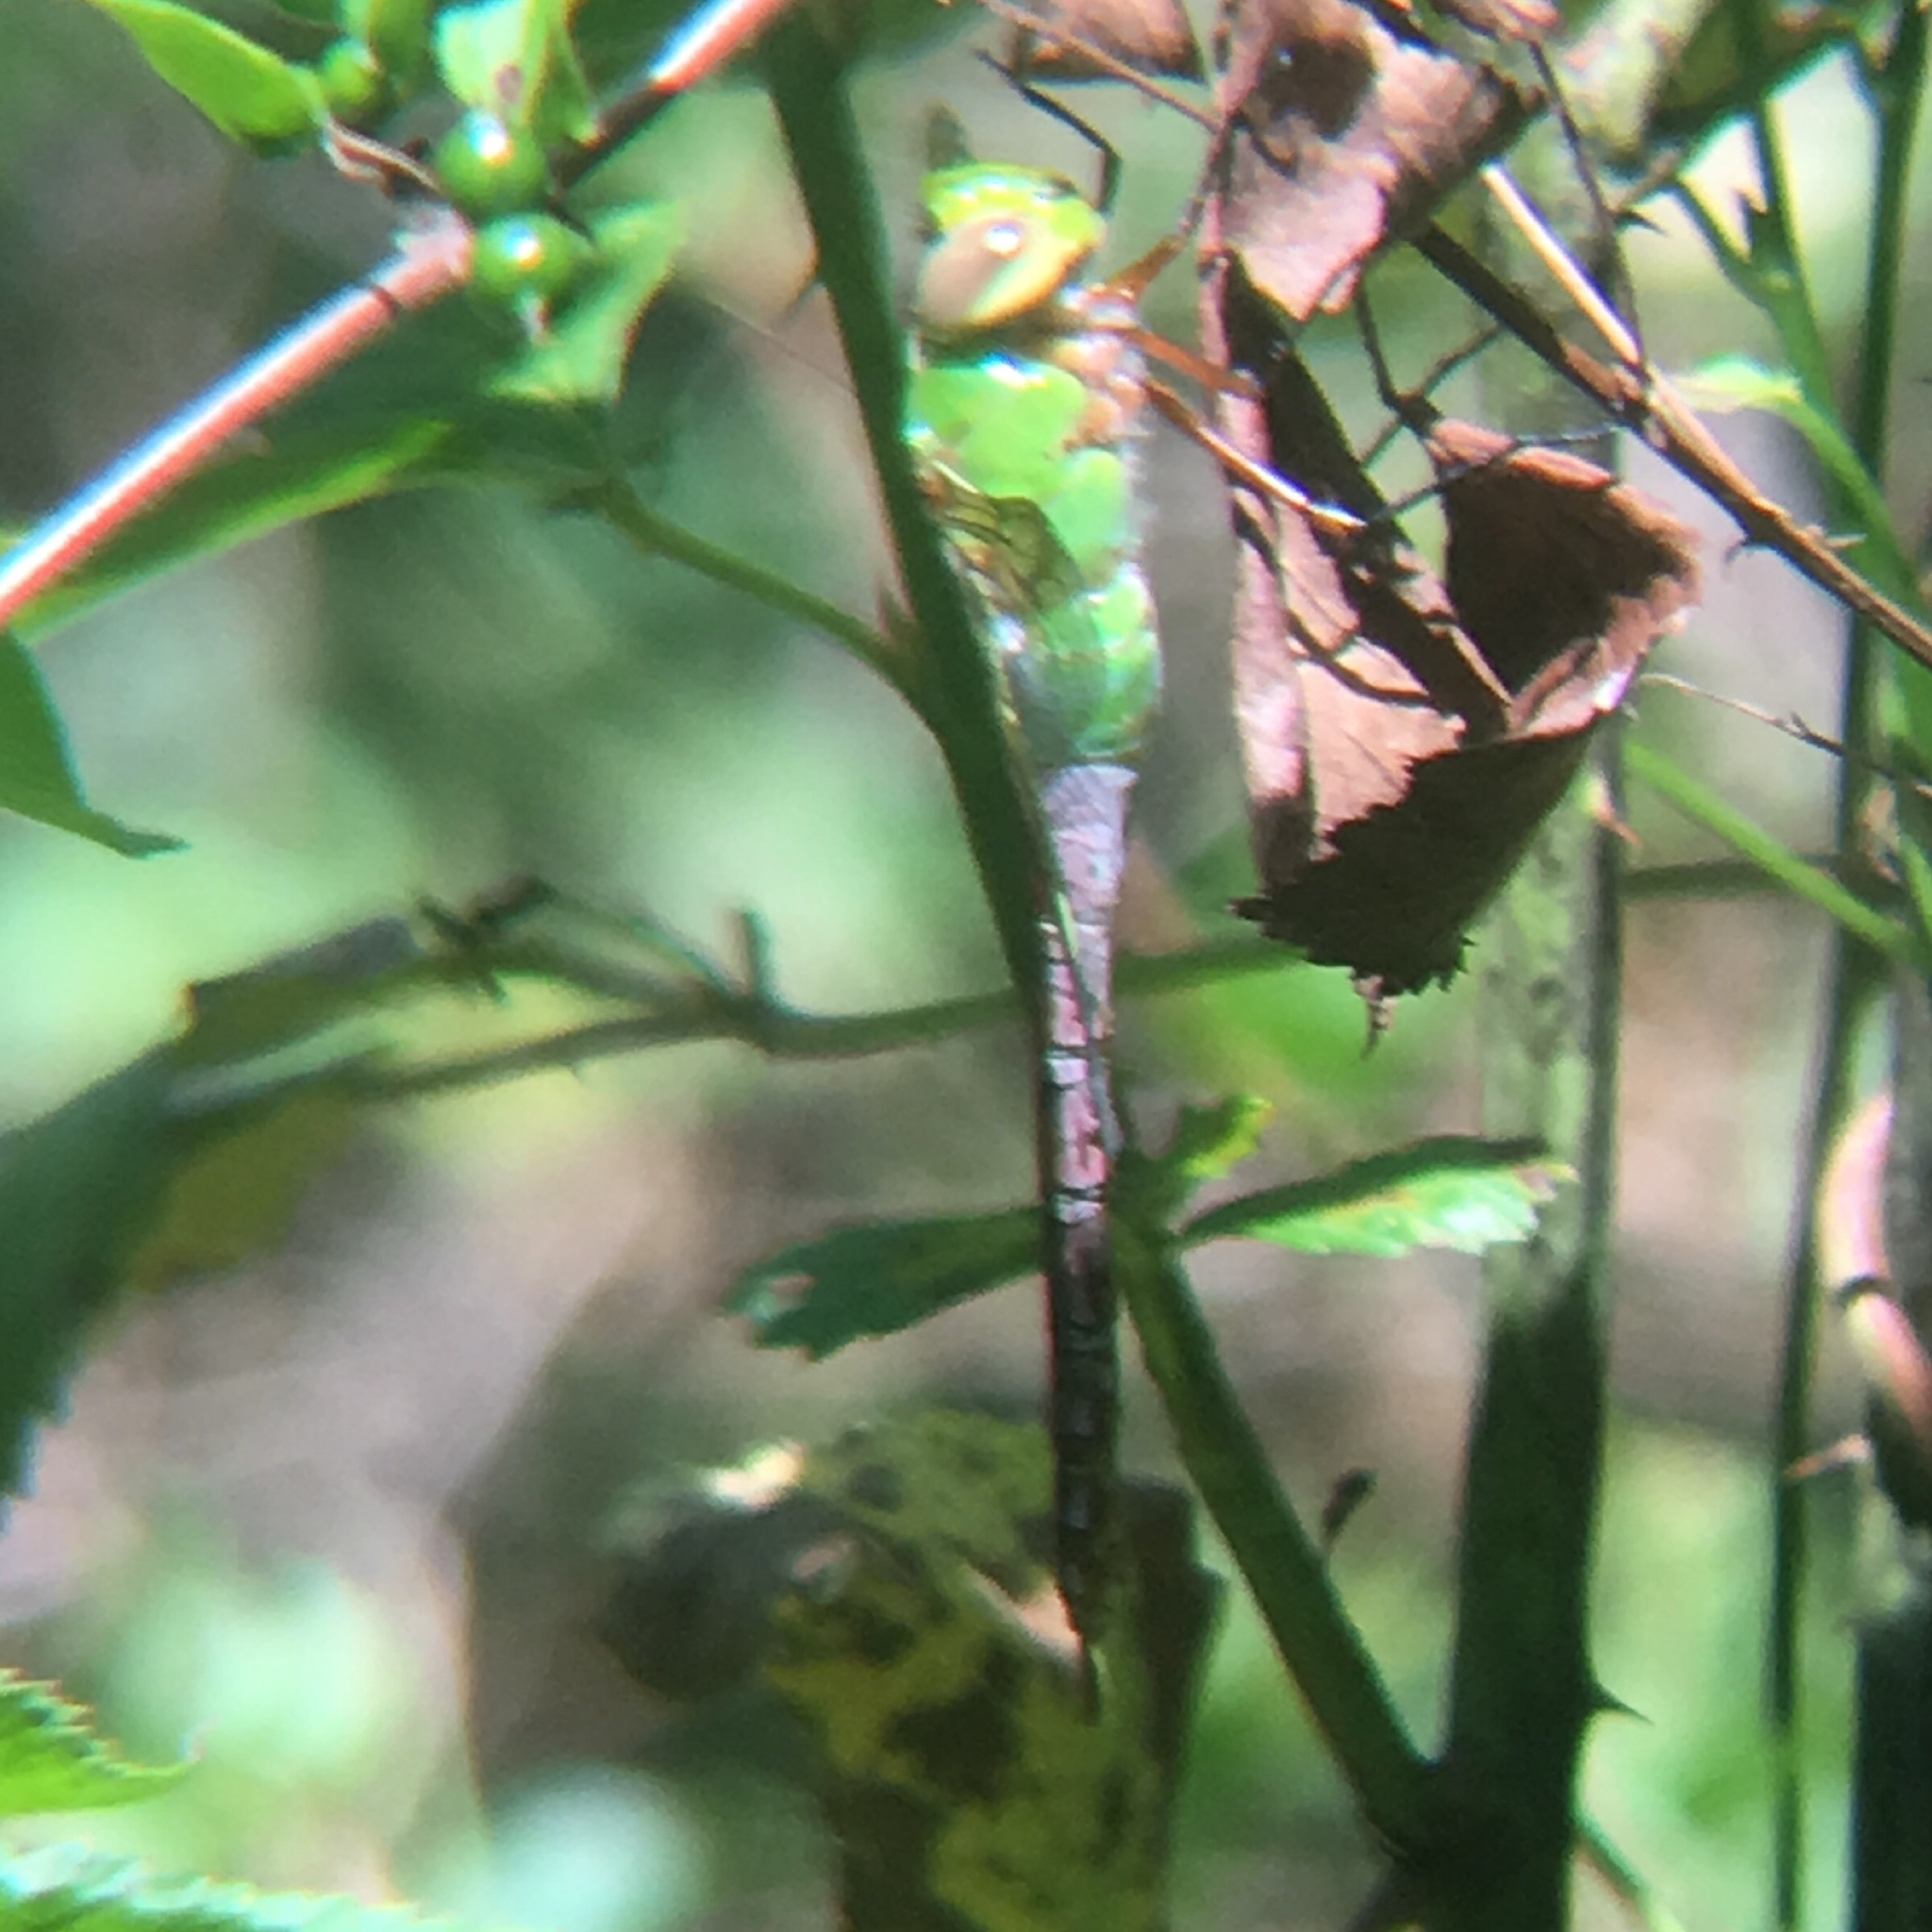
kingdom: Animalia
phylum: Arthropoda
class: Insecta
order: Odonata
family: Aeshnidae
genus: Anax
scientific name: Anax junius
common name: Common green darner
